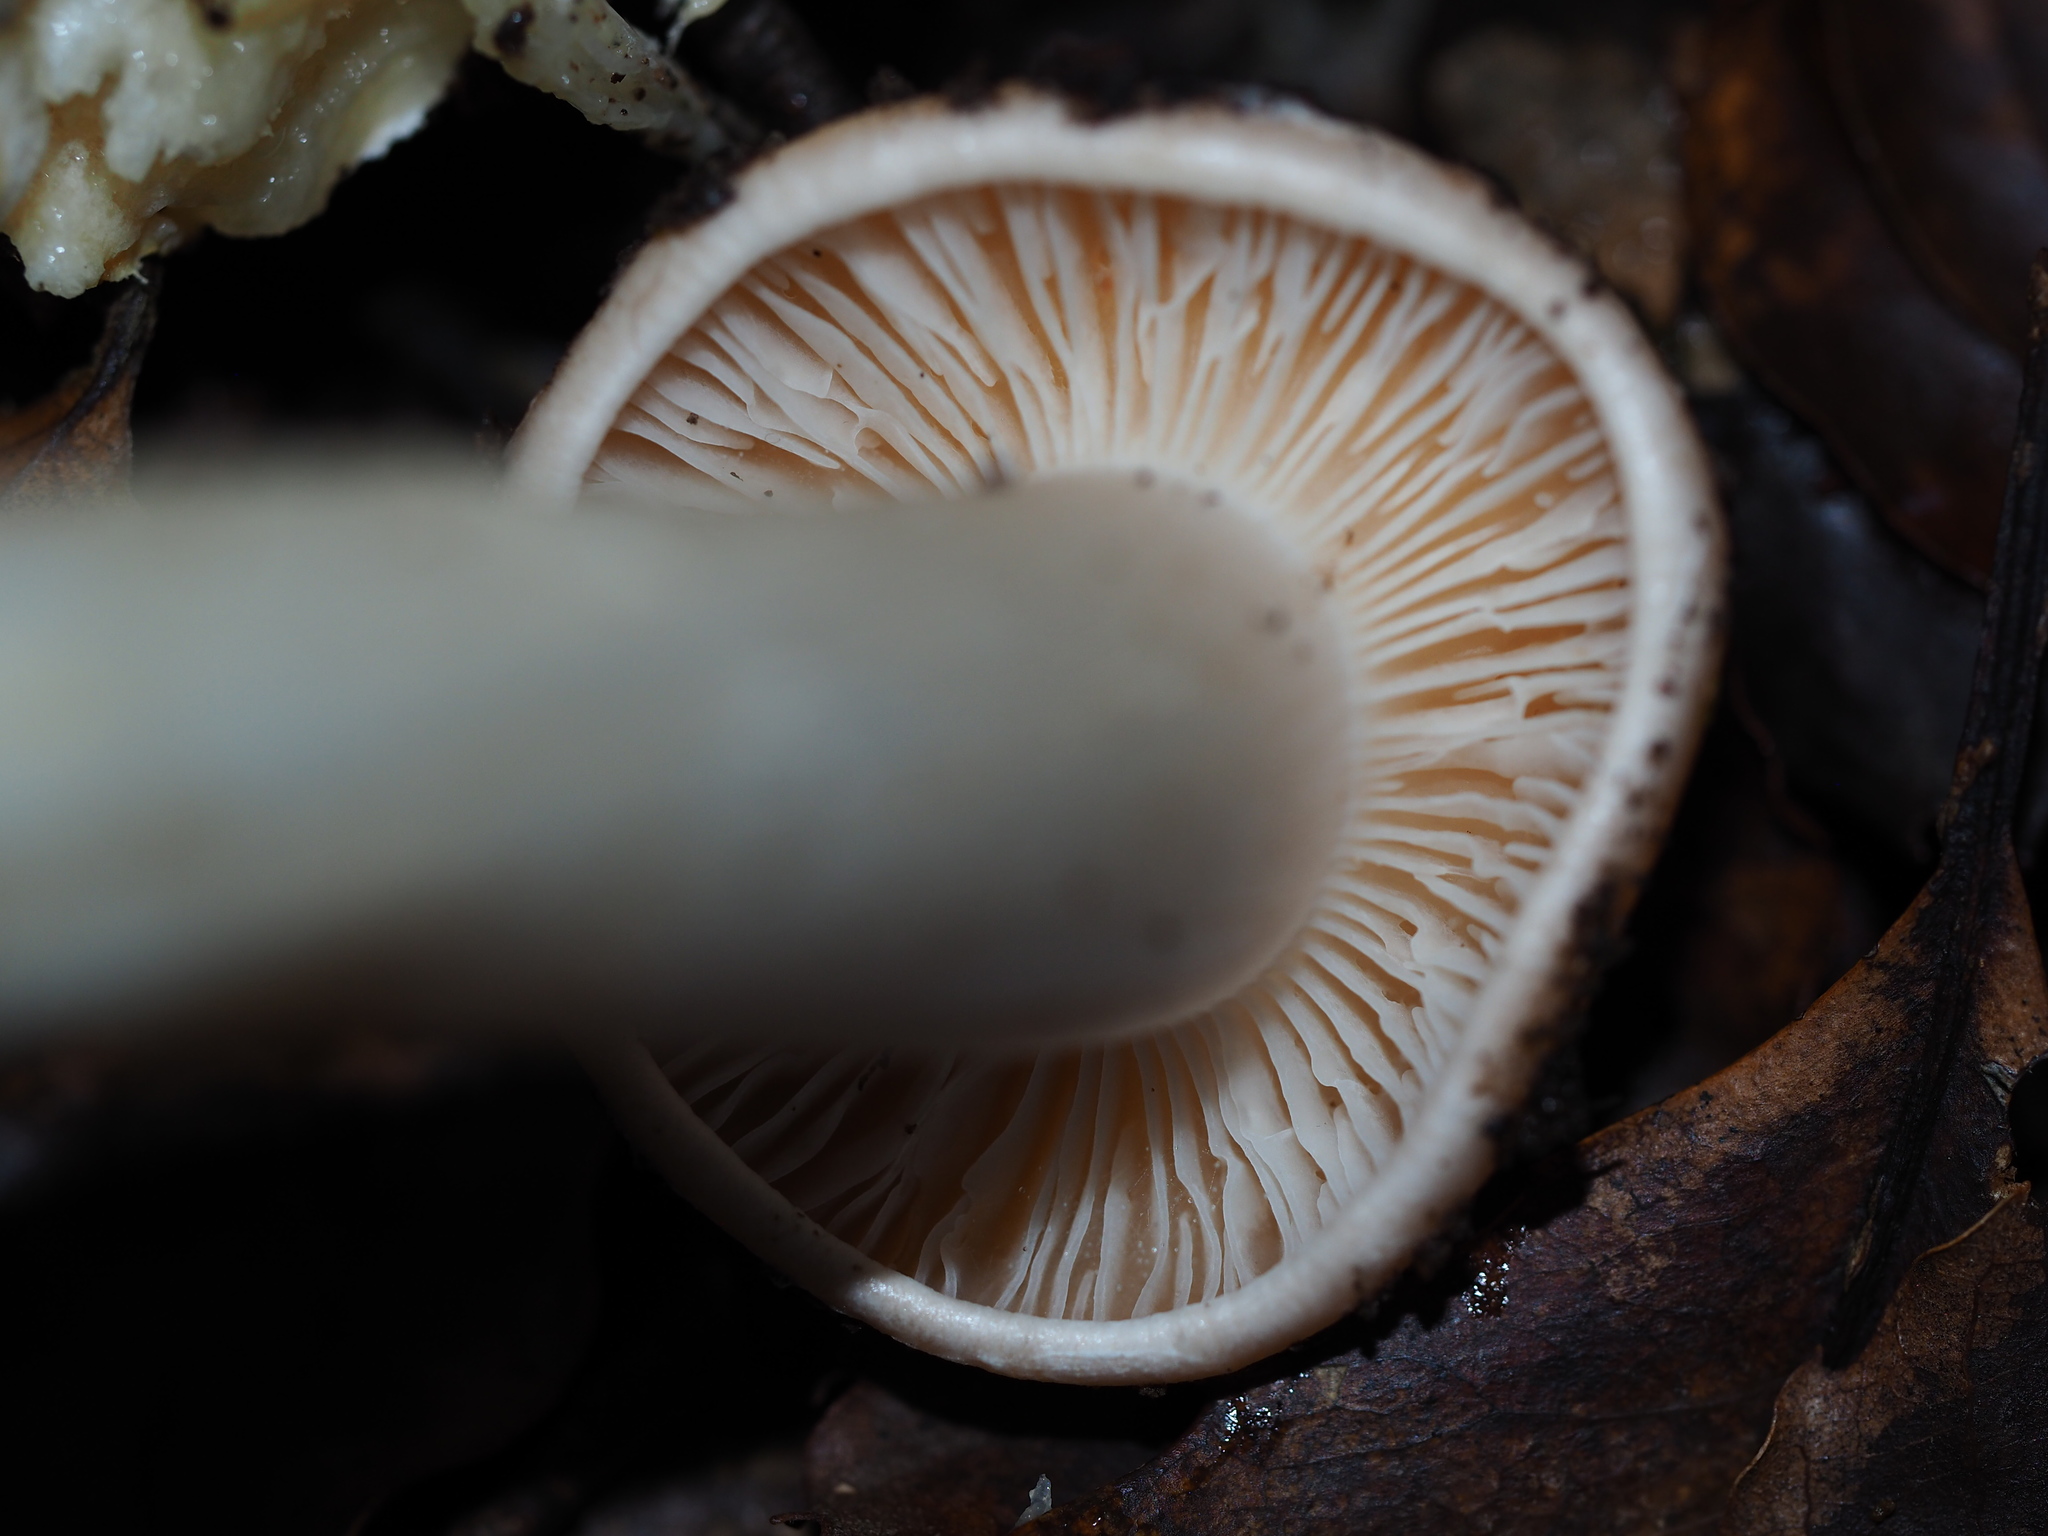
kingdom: Fungi
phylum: Basidiomycota
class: Agaricomycetes
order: Agaricales
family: Cortinariaceae
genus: Thaxterogaster
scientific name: Thaxterogaster persicanus
